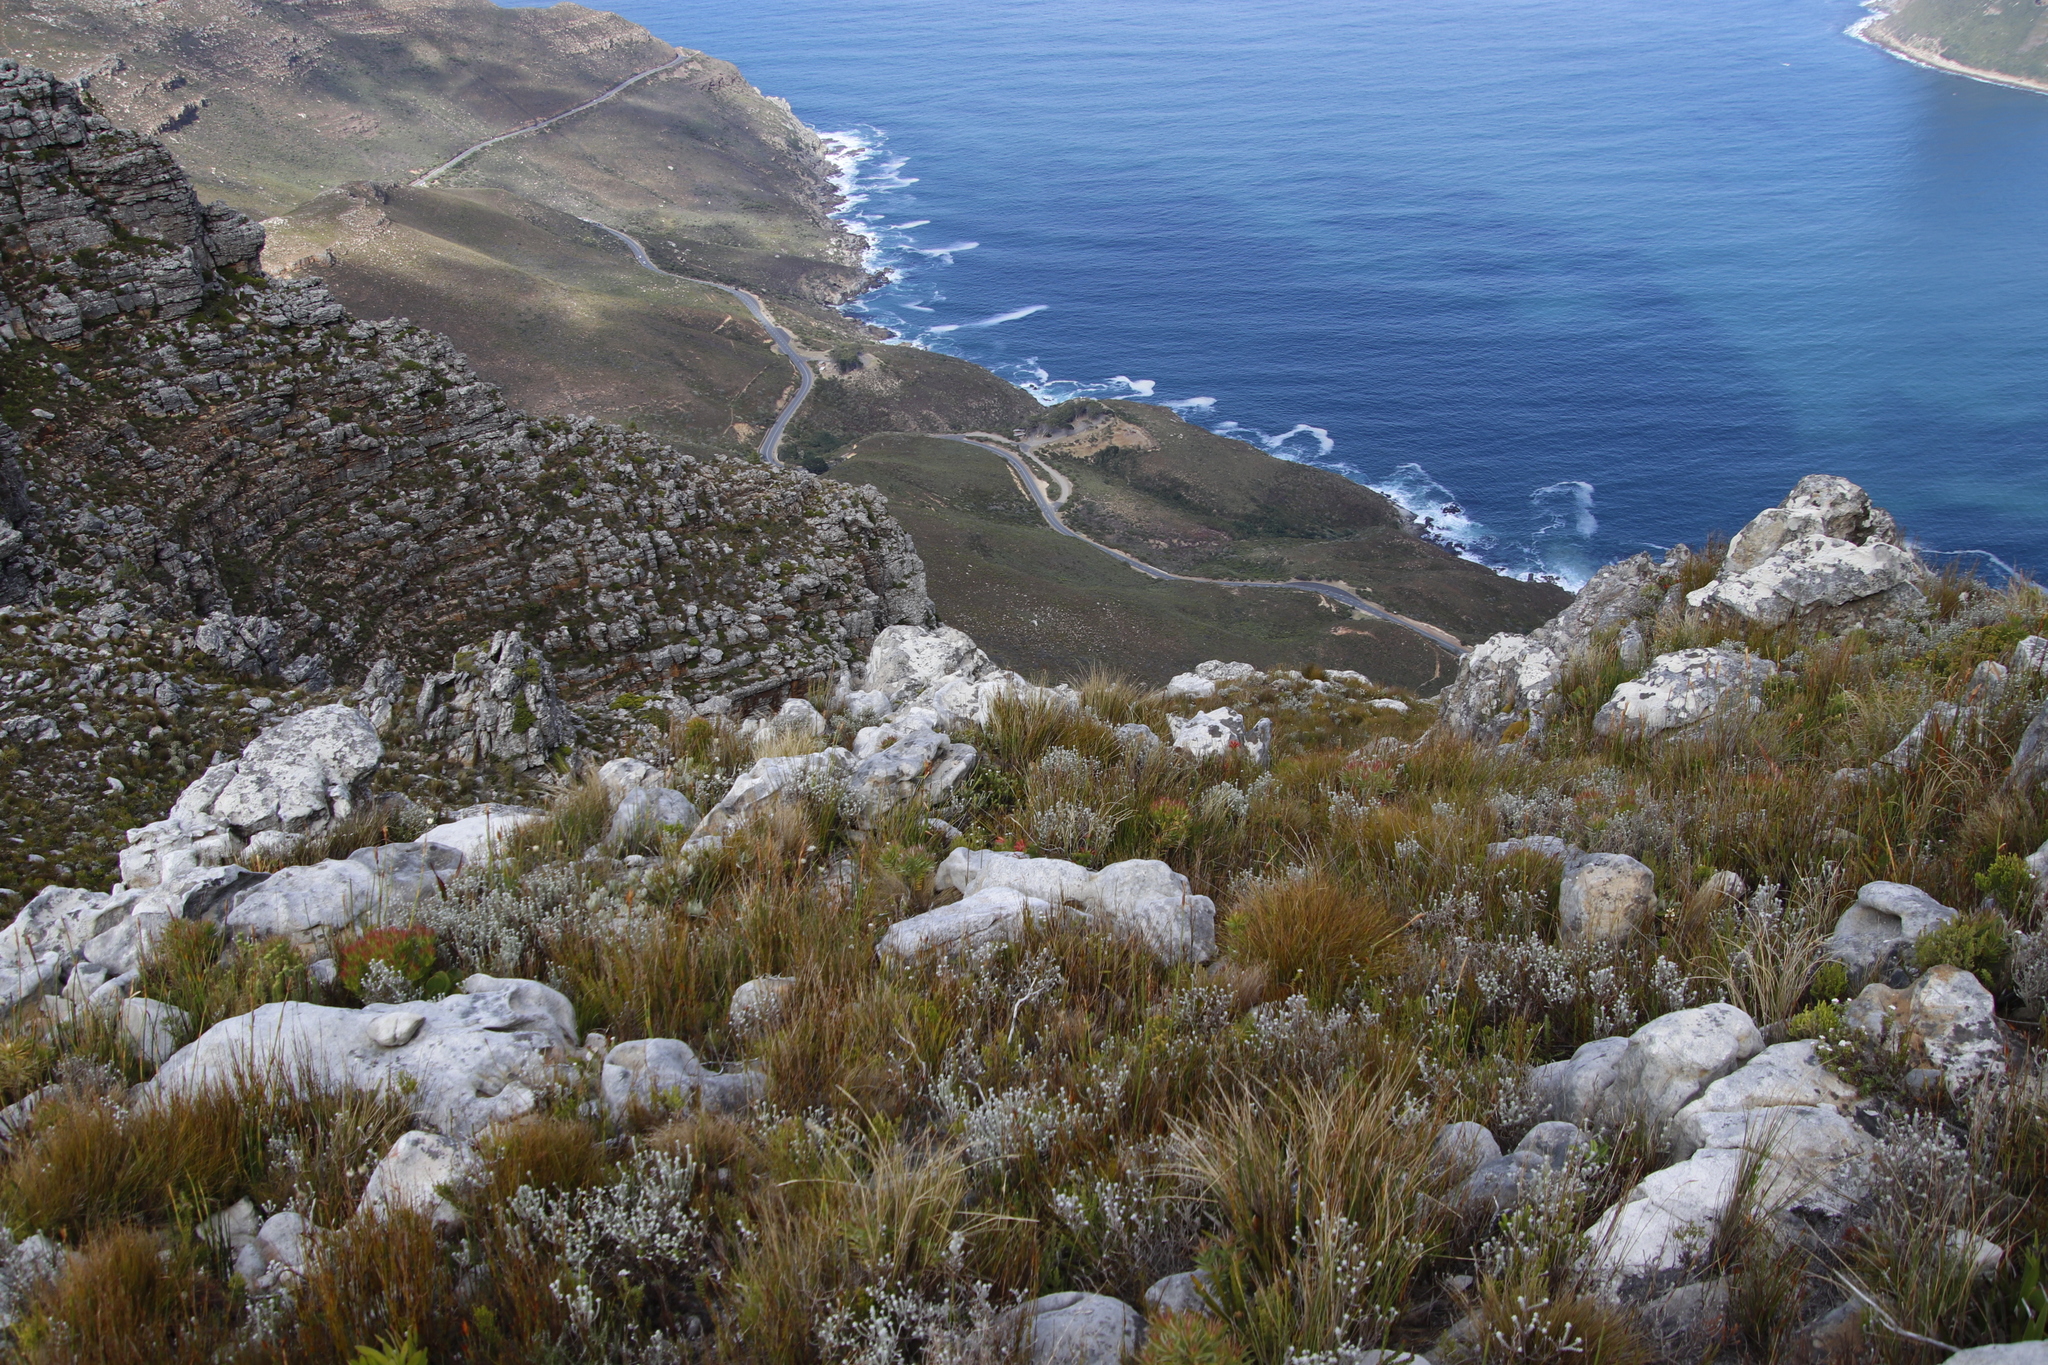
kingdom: Plantae
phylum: Tracheophyta
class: Magnoliopsida
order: Ericales
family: Ericaceae
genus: Erica
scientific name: Erica nevillei
